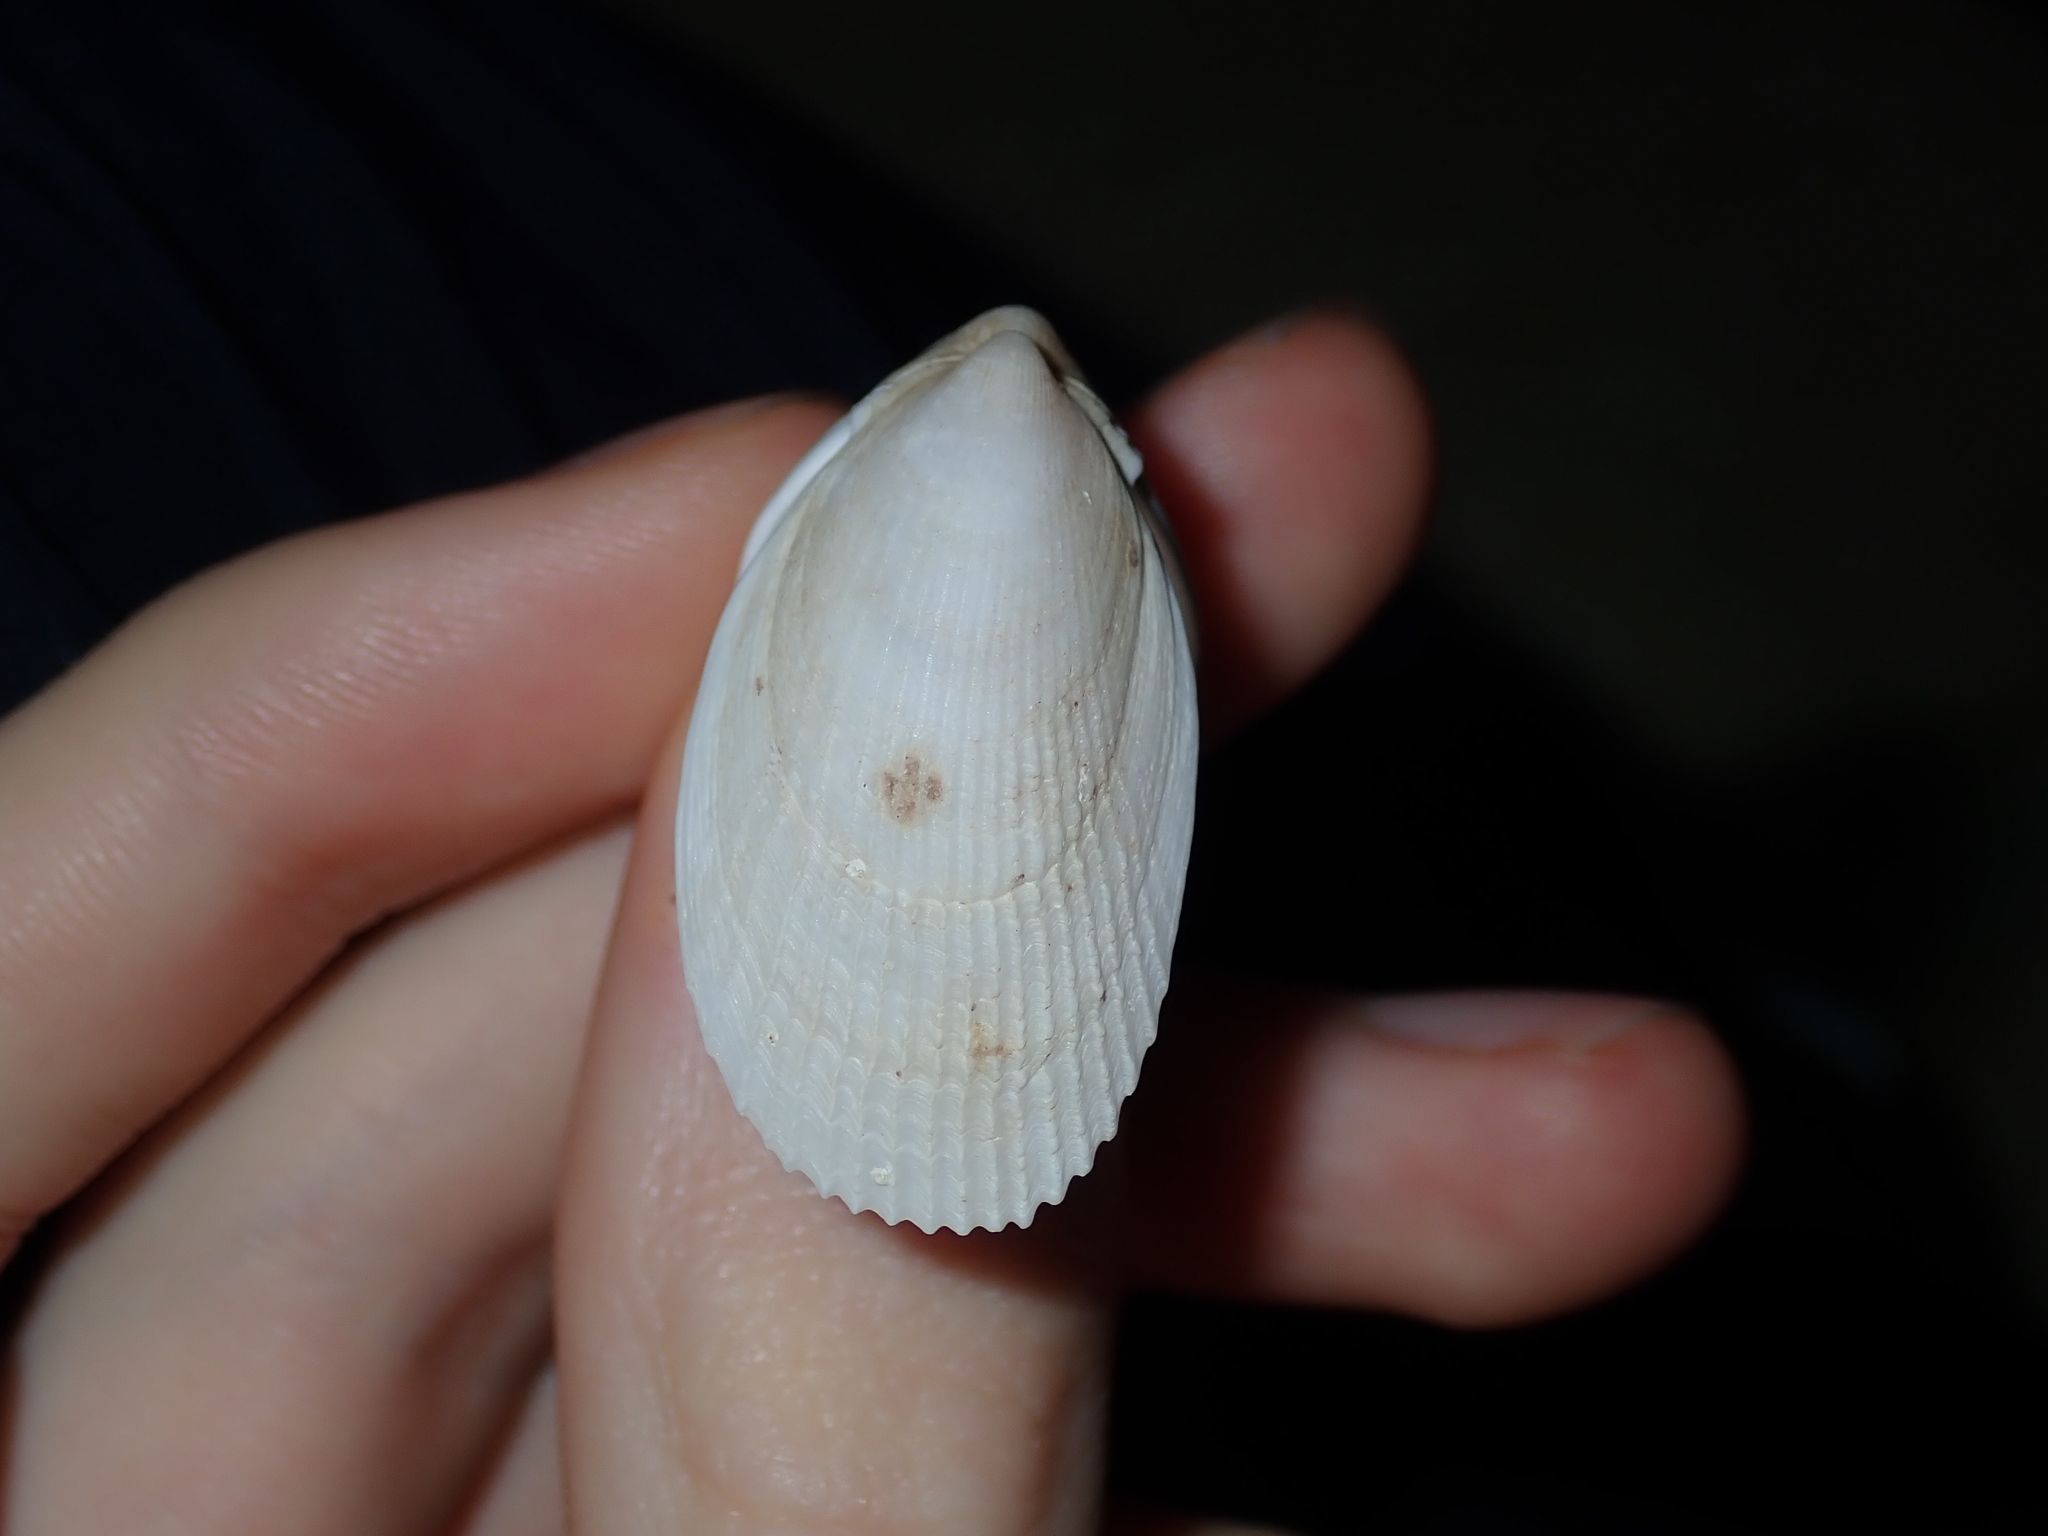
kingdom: Animalia
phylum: Mollusca
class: Bivalvia
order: Limida
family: Limidae
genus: Limatula
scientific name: Limatula strangei
